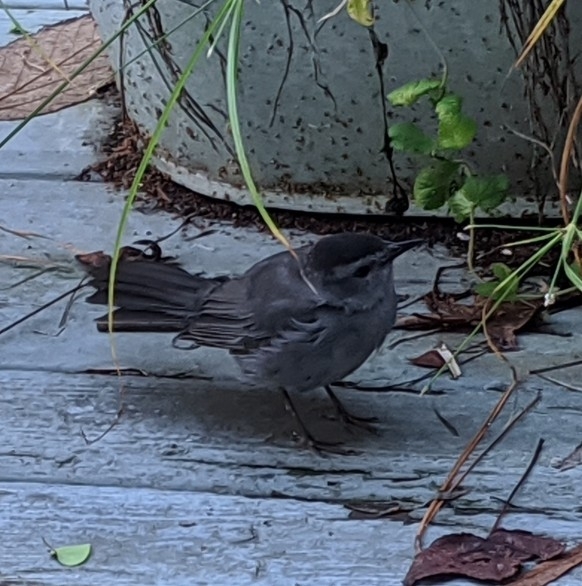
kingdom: Animalia
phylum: Chordata
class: Aves
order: Passeriformes
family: Mimidae
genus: Dumetella
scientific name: Dumetella carolinensis
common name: Gray catbird
